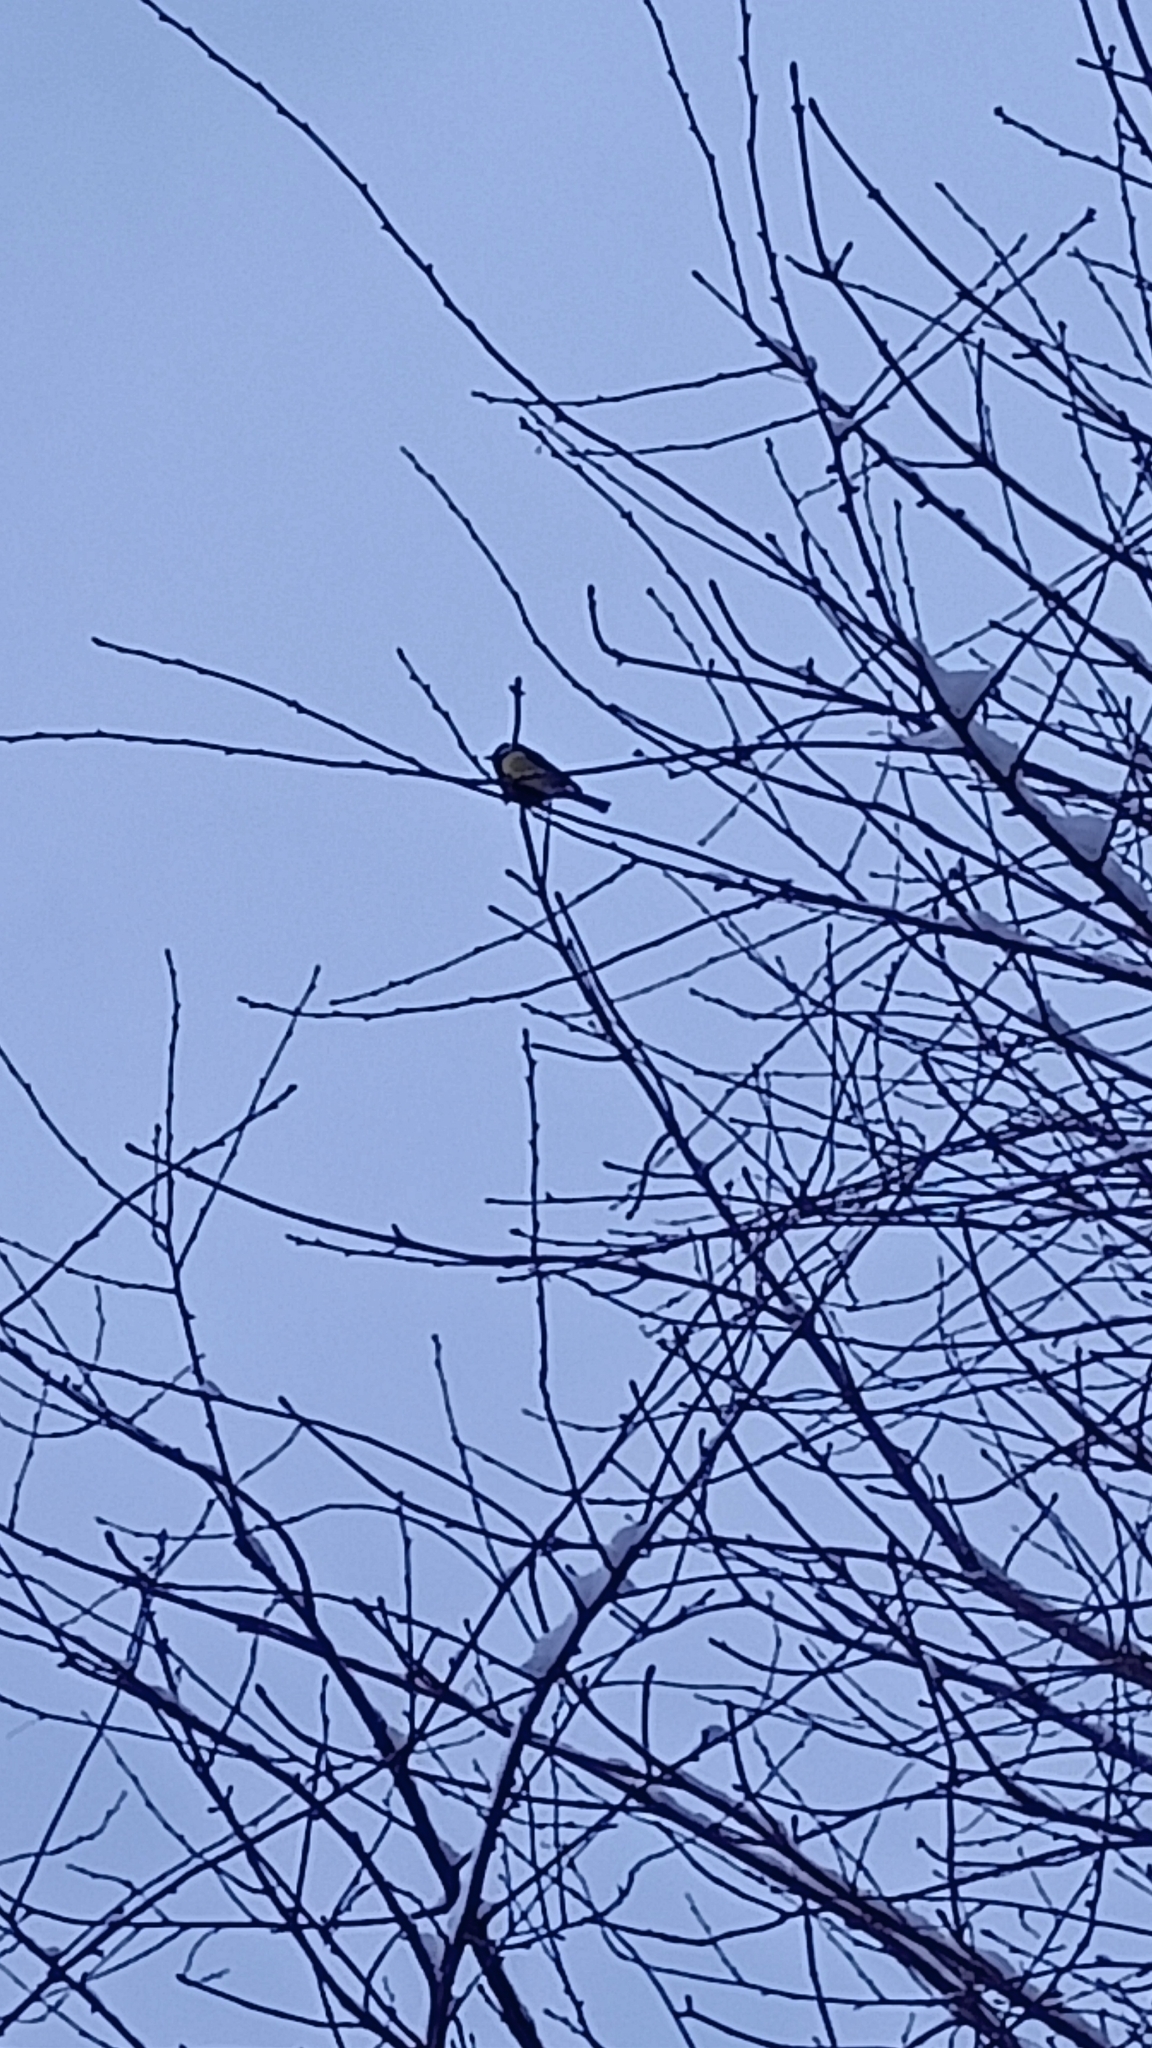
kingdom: Animalia
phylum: Chordata
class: Aves
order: Passeriformes
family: Paridae
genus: Parus
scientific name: Parus major
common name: Great tit
